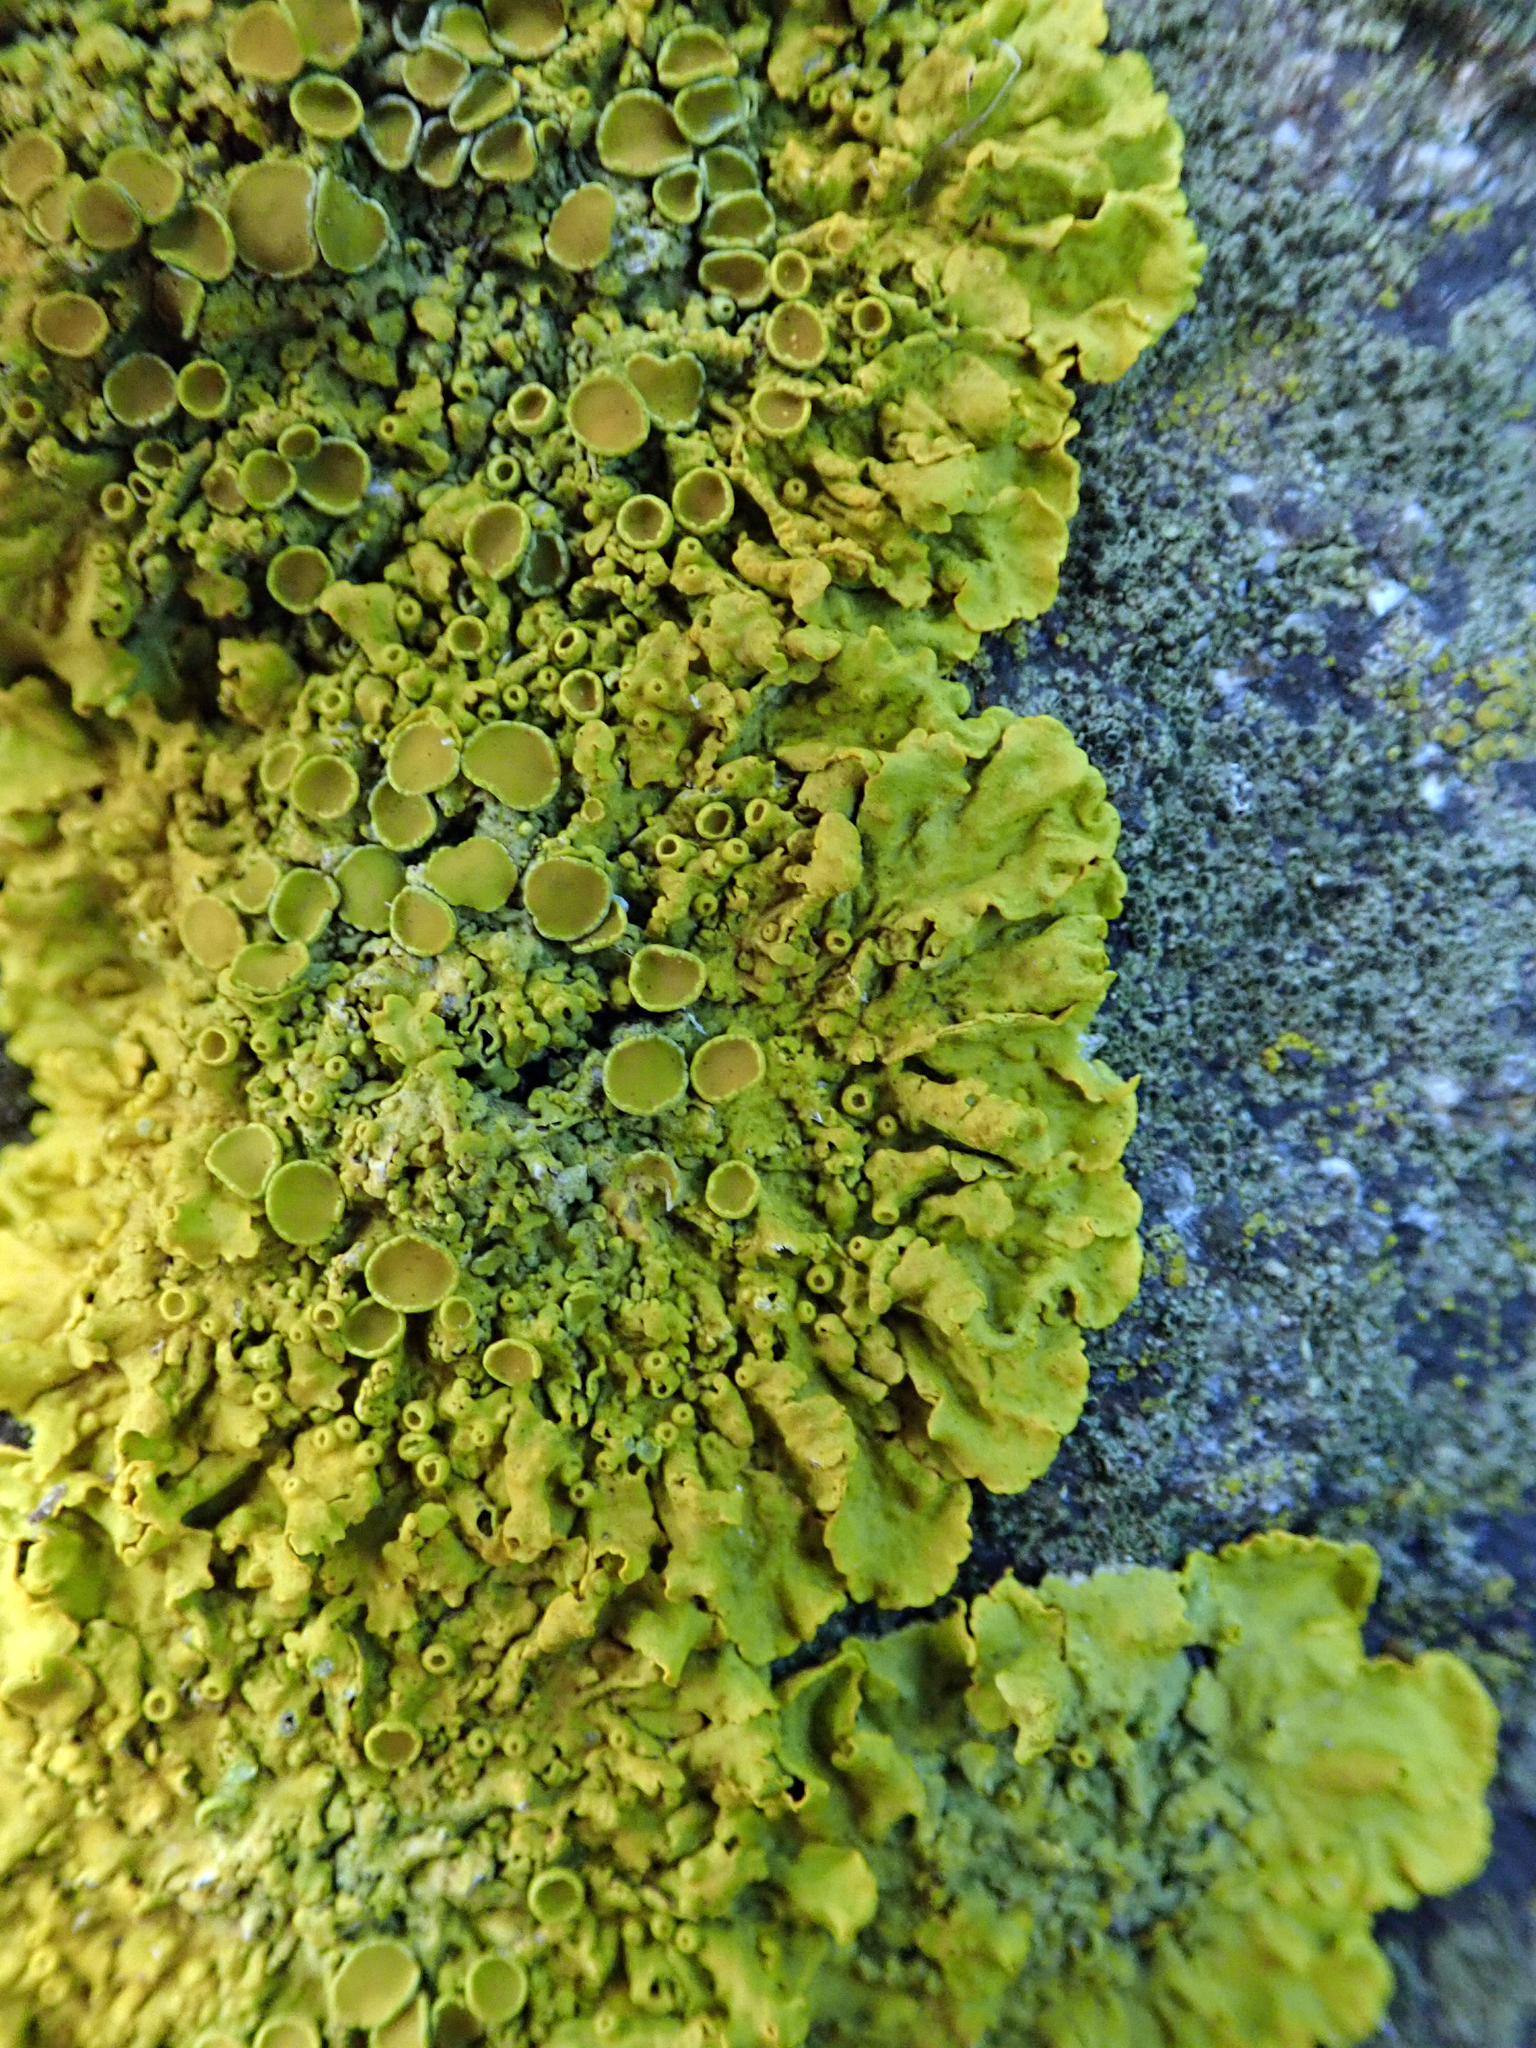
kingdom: Fungi
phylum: Ascomycota
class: Lecanoromycetes
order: Teloschistales
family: Teloschistaceae
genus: Xanthoria
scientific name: Xanthoria parietina
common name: Common orange lichen
